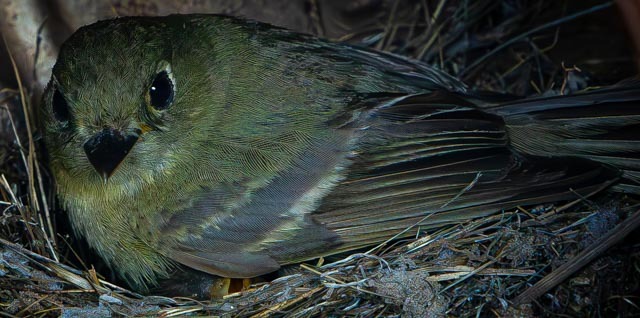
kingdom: Animalia
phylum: Chordata
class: Aves
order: Passeriformes
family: Tyrannidae
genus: Empidonax
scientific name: Empidonax difficilis
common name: Pacific-slope flycatcher
